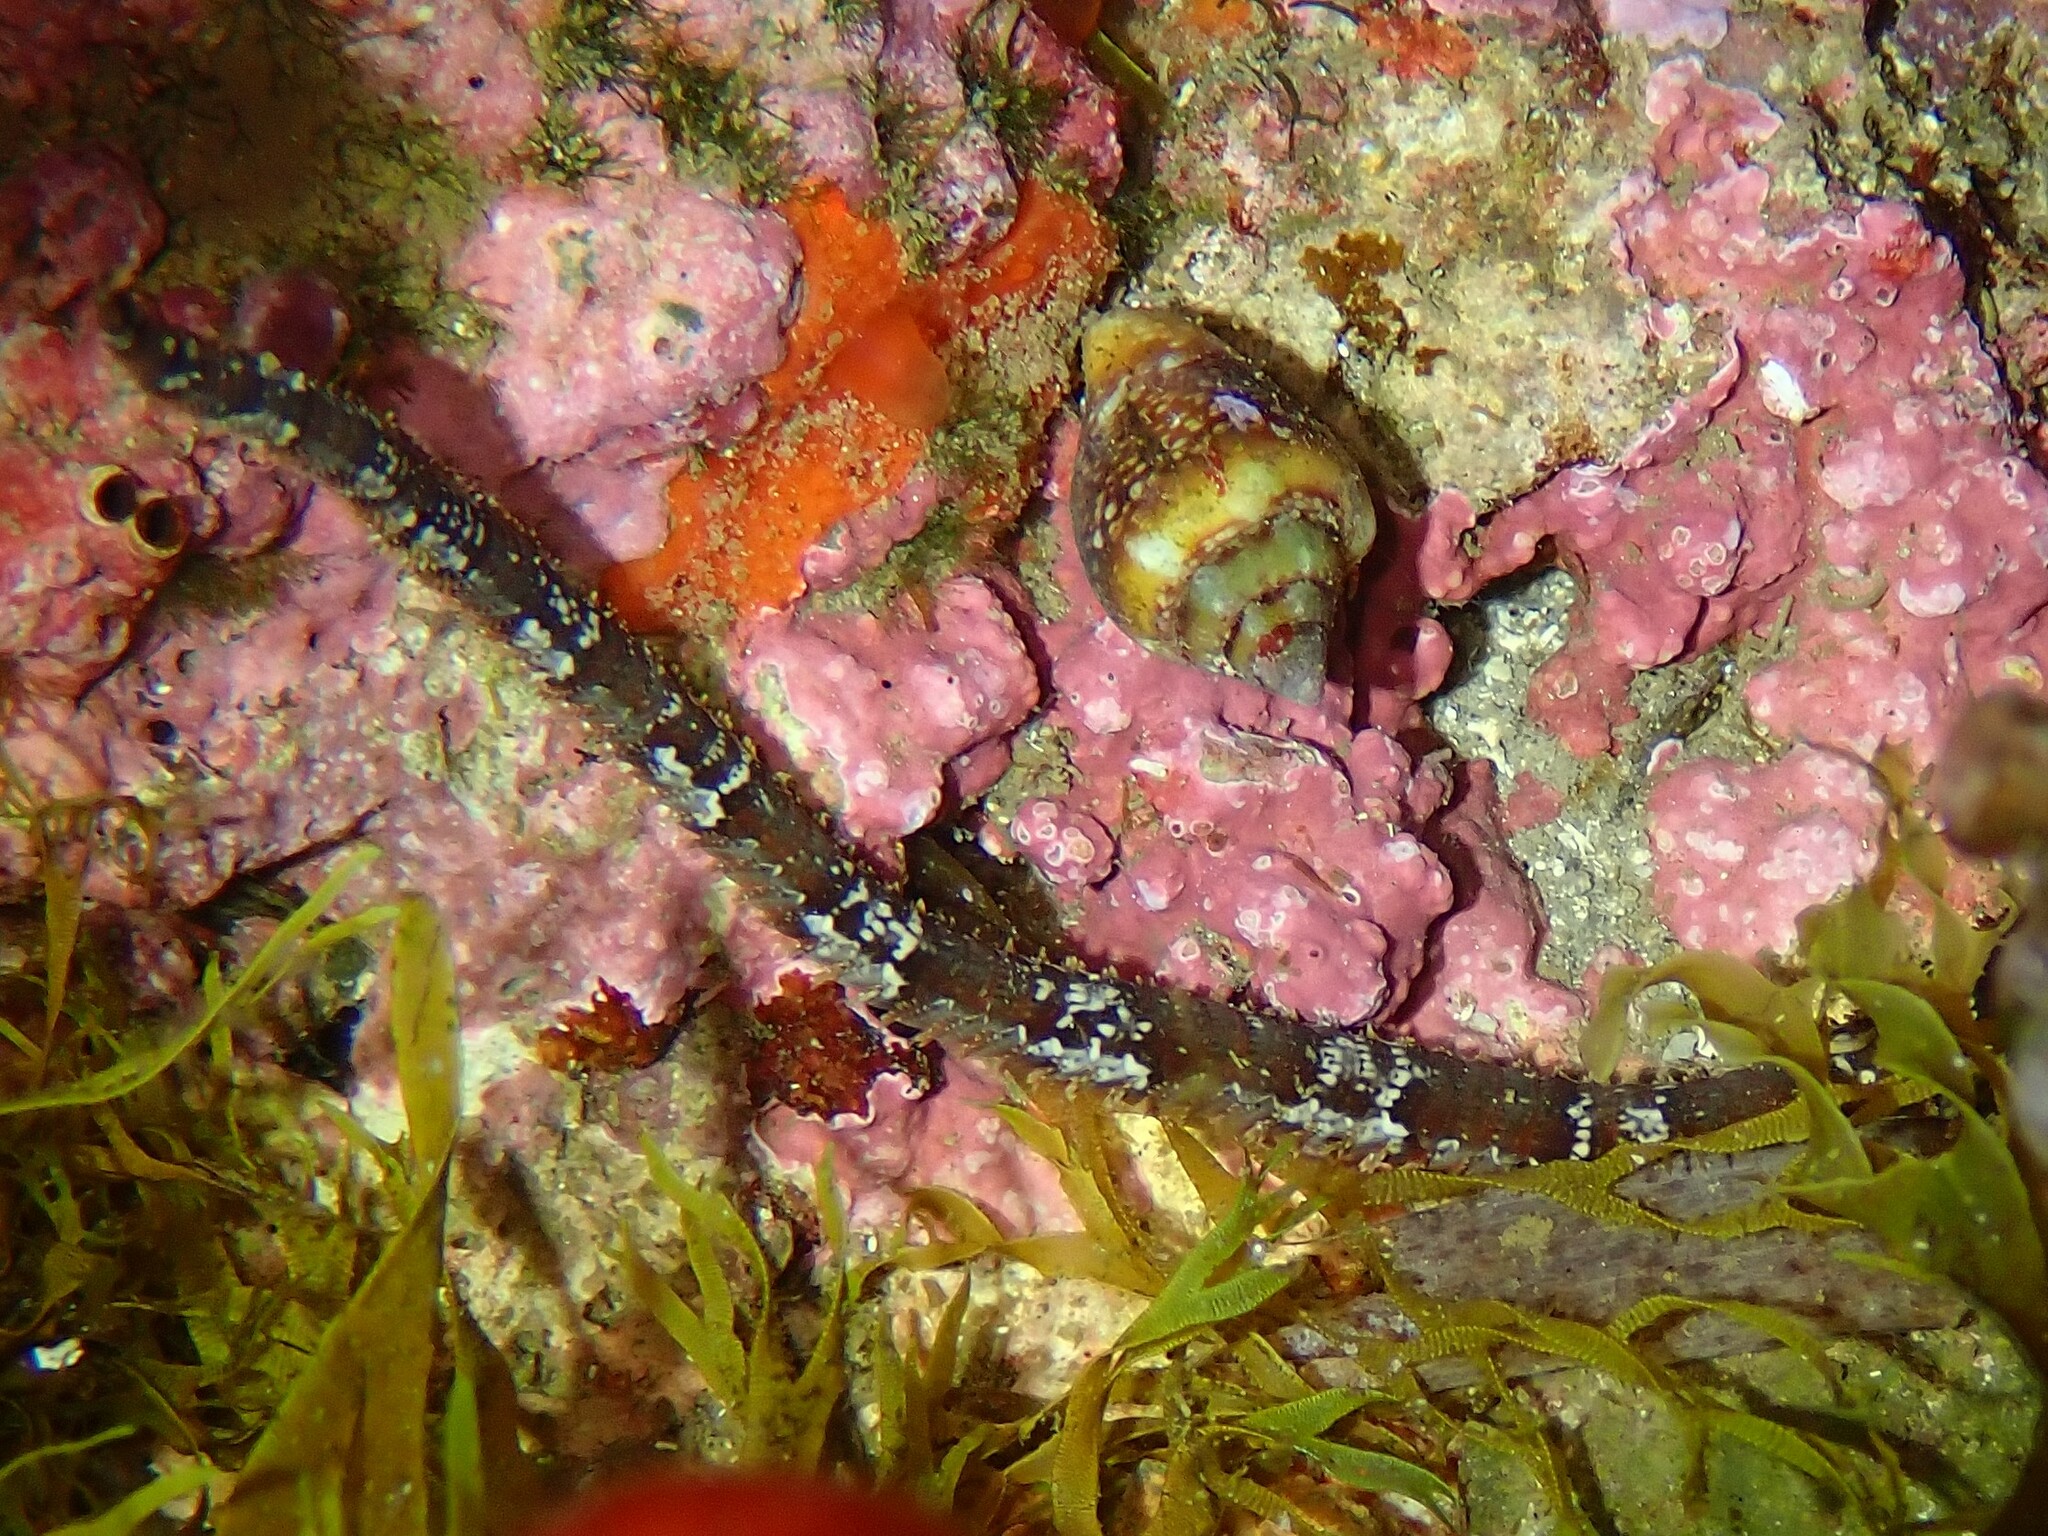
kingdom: Animalia
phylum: Mollusca
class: Gastropoda
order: Neogastropoda
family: Columbellidae
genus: Columbella
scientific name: Columbella rustica
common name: Rustic dove shell
